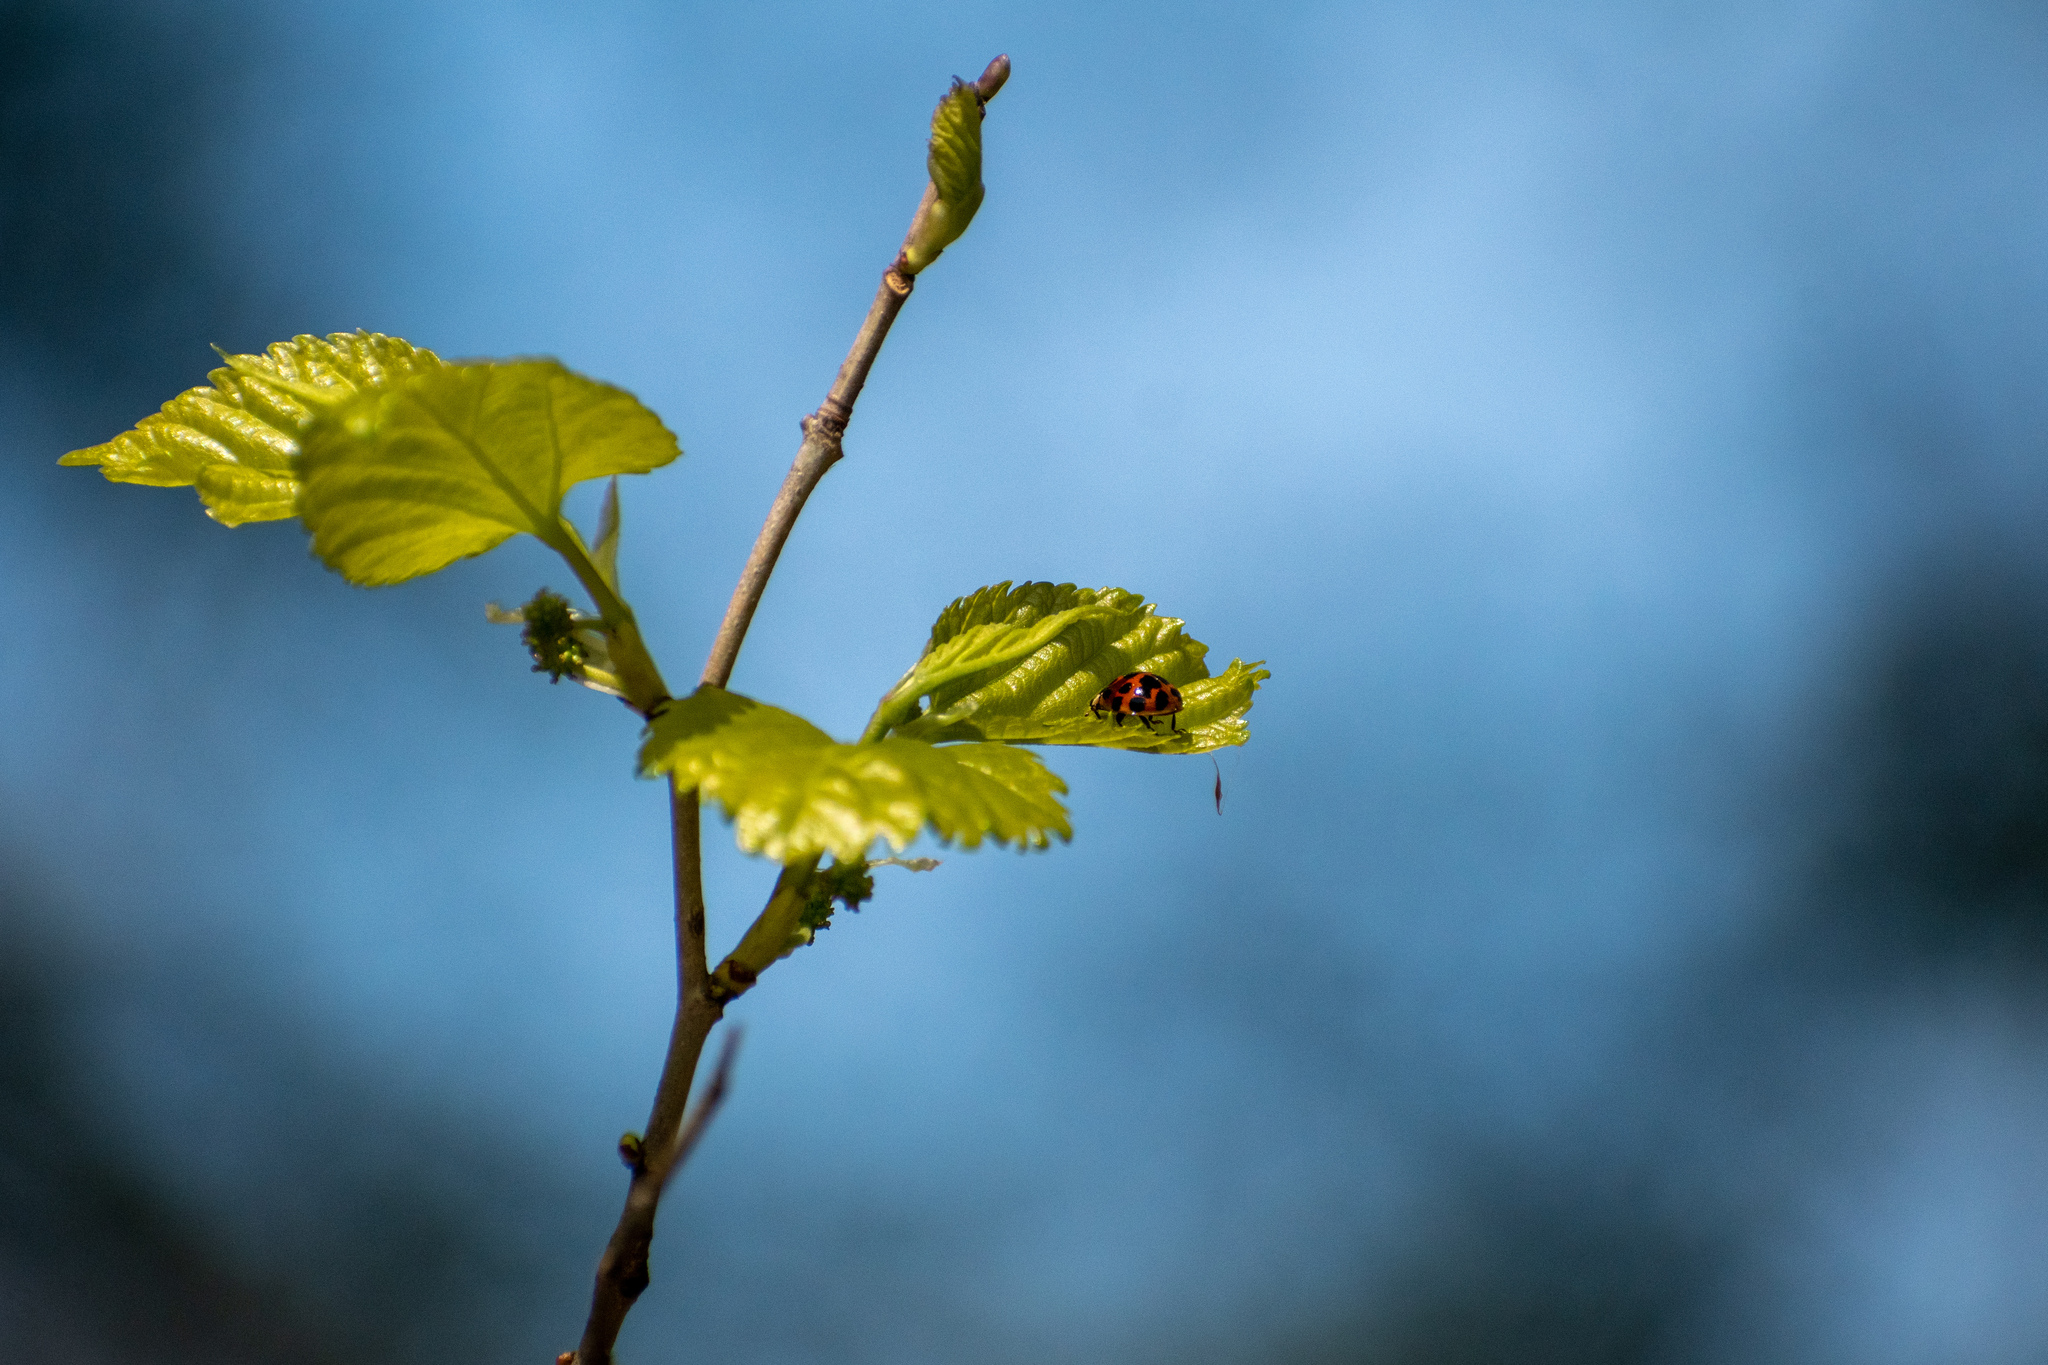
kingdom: Animalia
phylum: Arthropoda
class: Insecta
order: Coleoptera
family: Coccinellidae
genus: Harmonia
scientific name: Harmonia axyridis
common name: Harlequin ladybird
